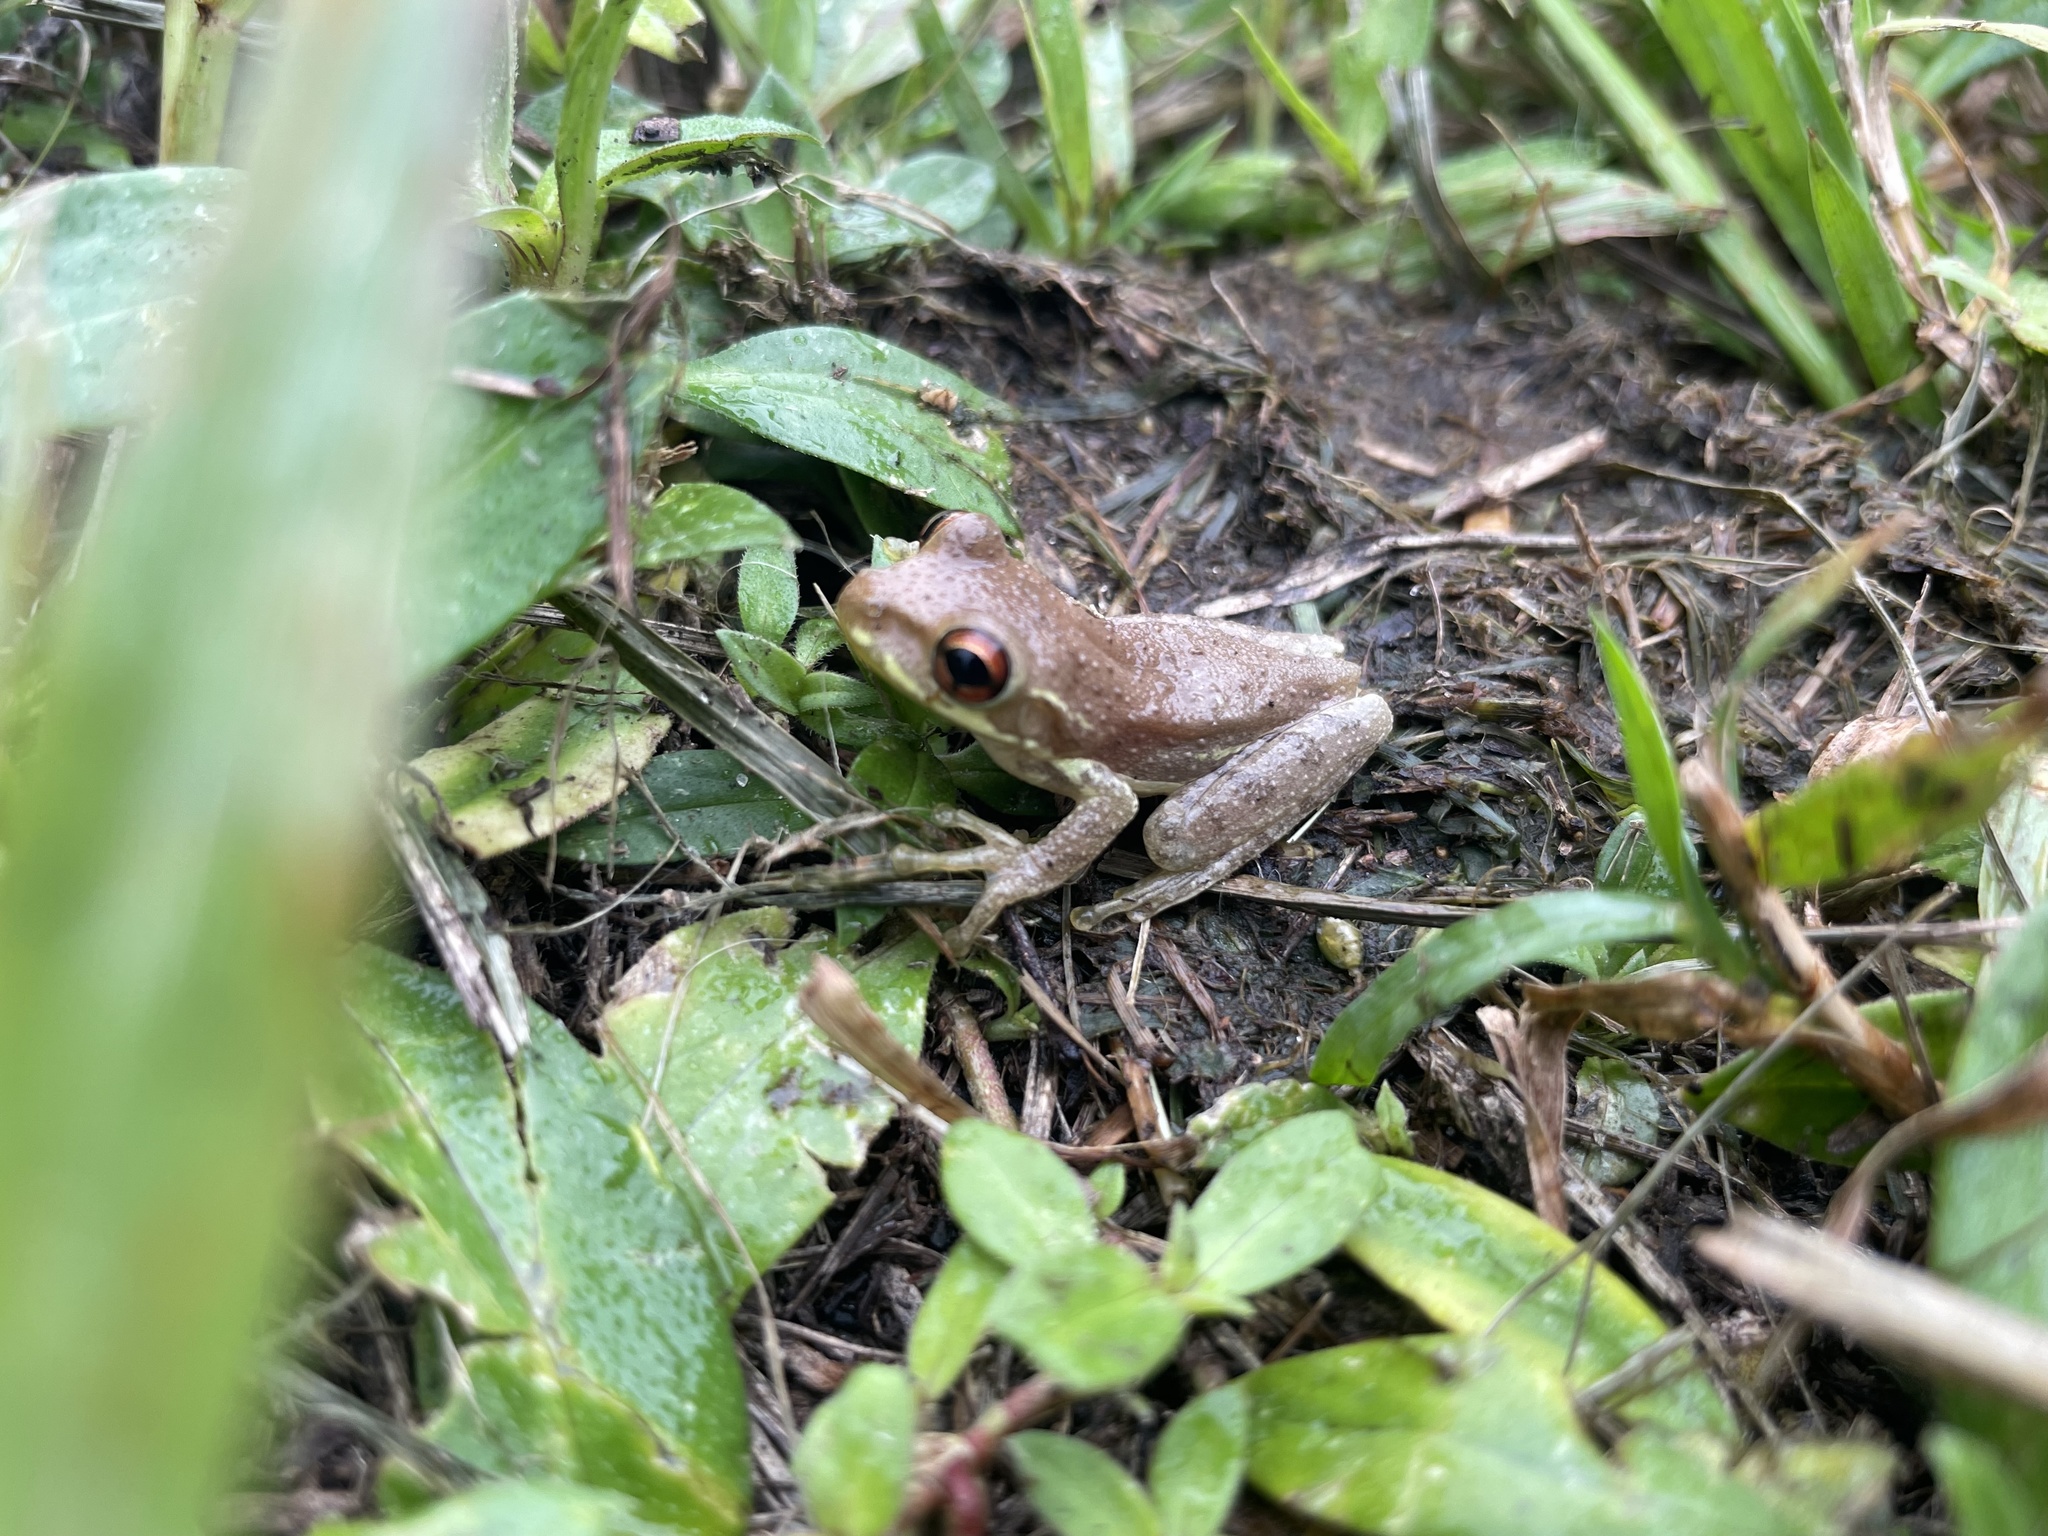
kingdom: Animalia
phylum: Chordata
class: Amphibia
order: Anura
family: Hylidae
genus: Osteopilus
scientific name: Osteopilus septentrionalis
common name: Cuban treefrog
